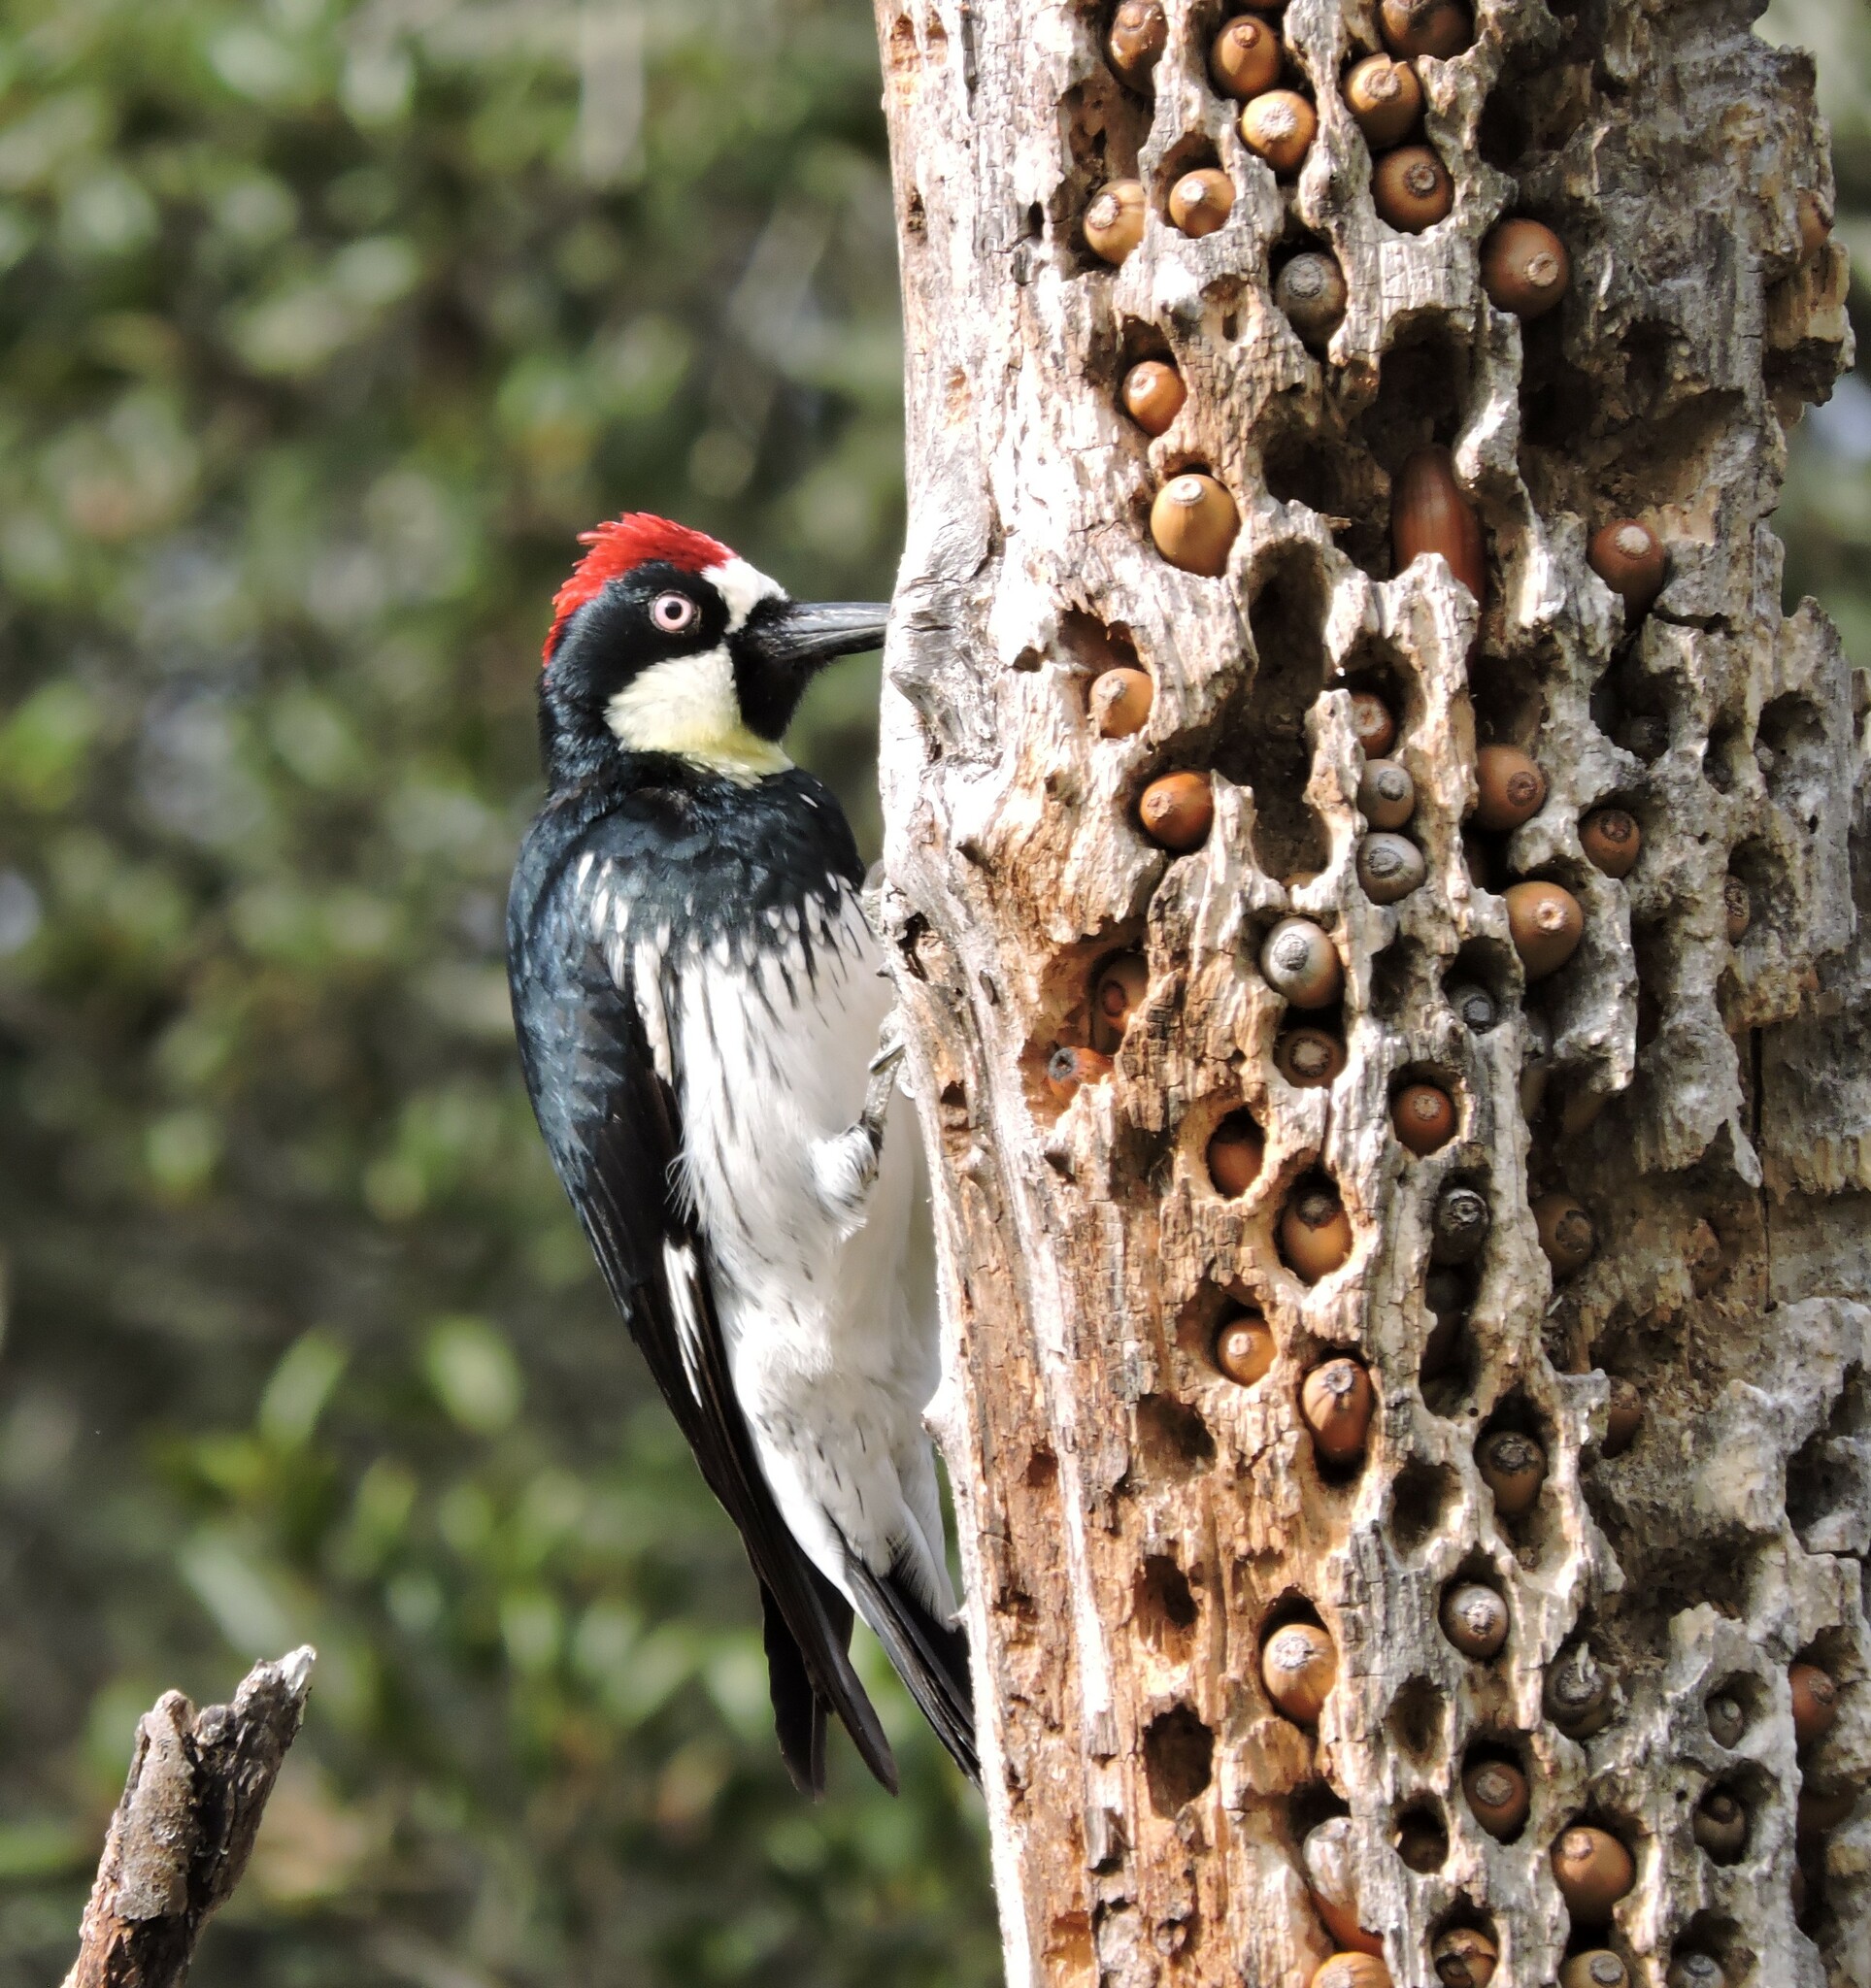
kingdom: Animalia
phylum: Chordata
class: Aves
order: Piciformes
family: Picidae
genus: Melanerpes
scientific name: Melanerpes formicivorus
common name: Acorn woodpecker
